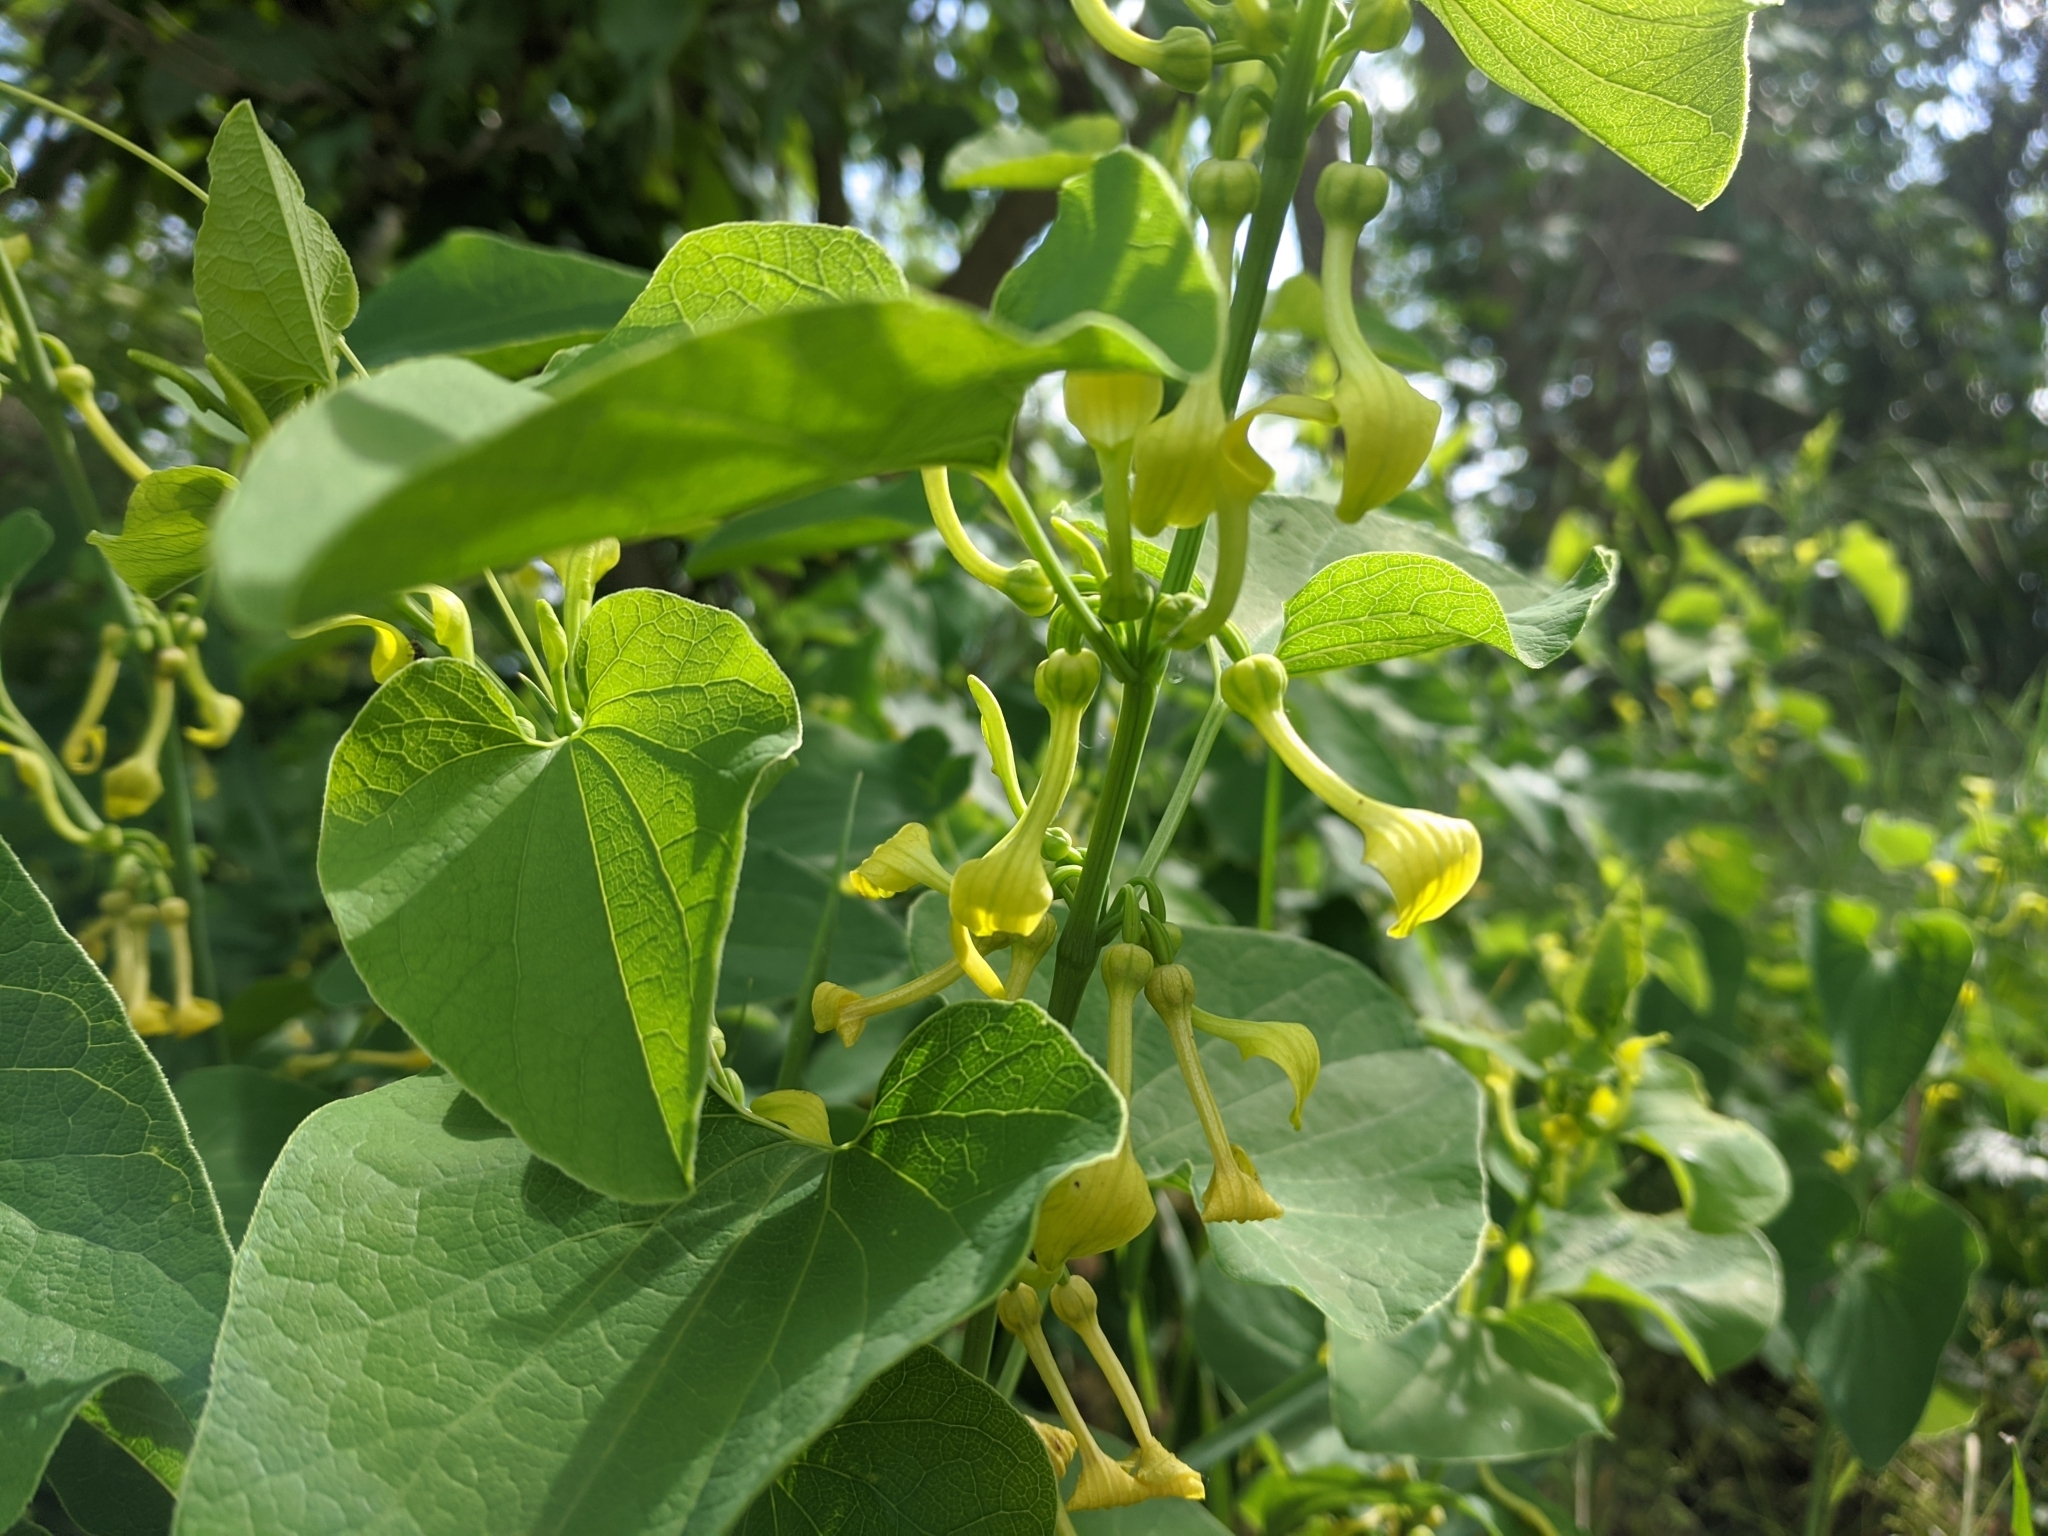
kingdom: Plantae
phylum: Tracheophyta
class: Magnoliopsida
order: Piperales
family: Aristolochiaceae
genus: Aristolochia
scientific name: Aristolochia clematitis
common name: Birthwort
